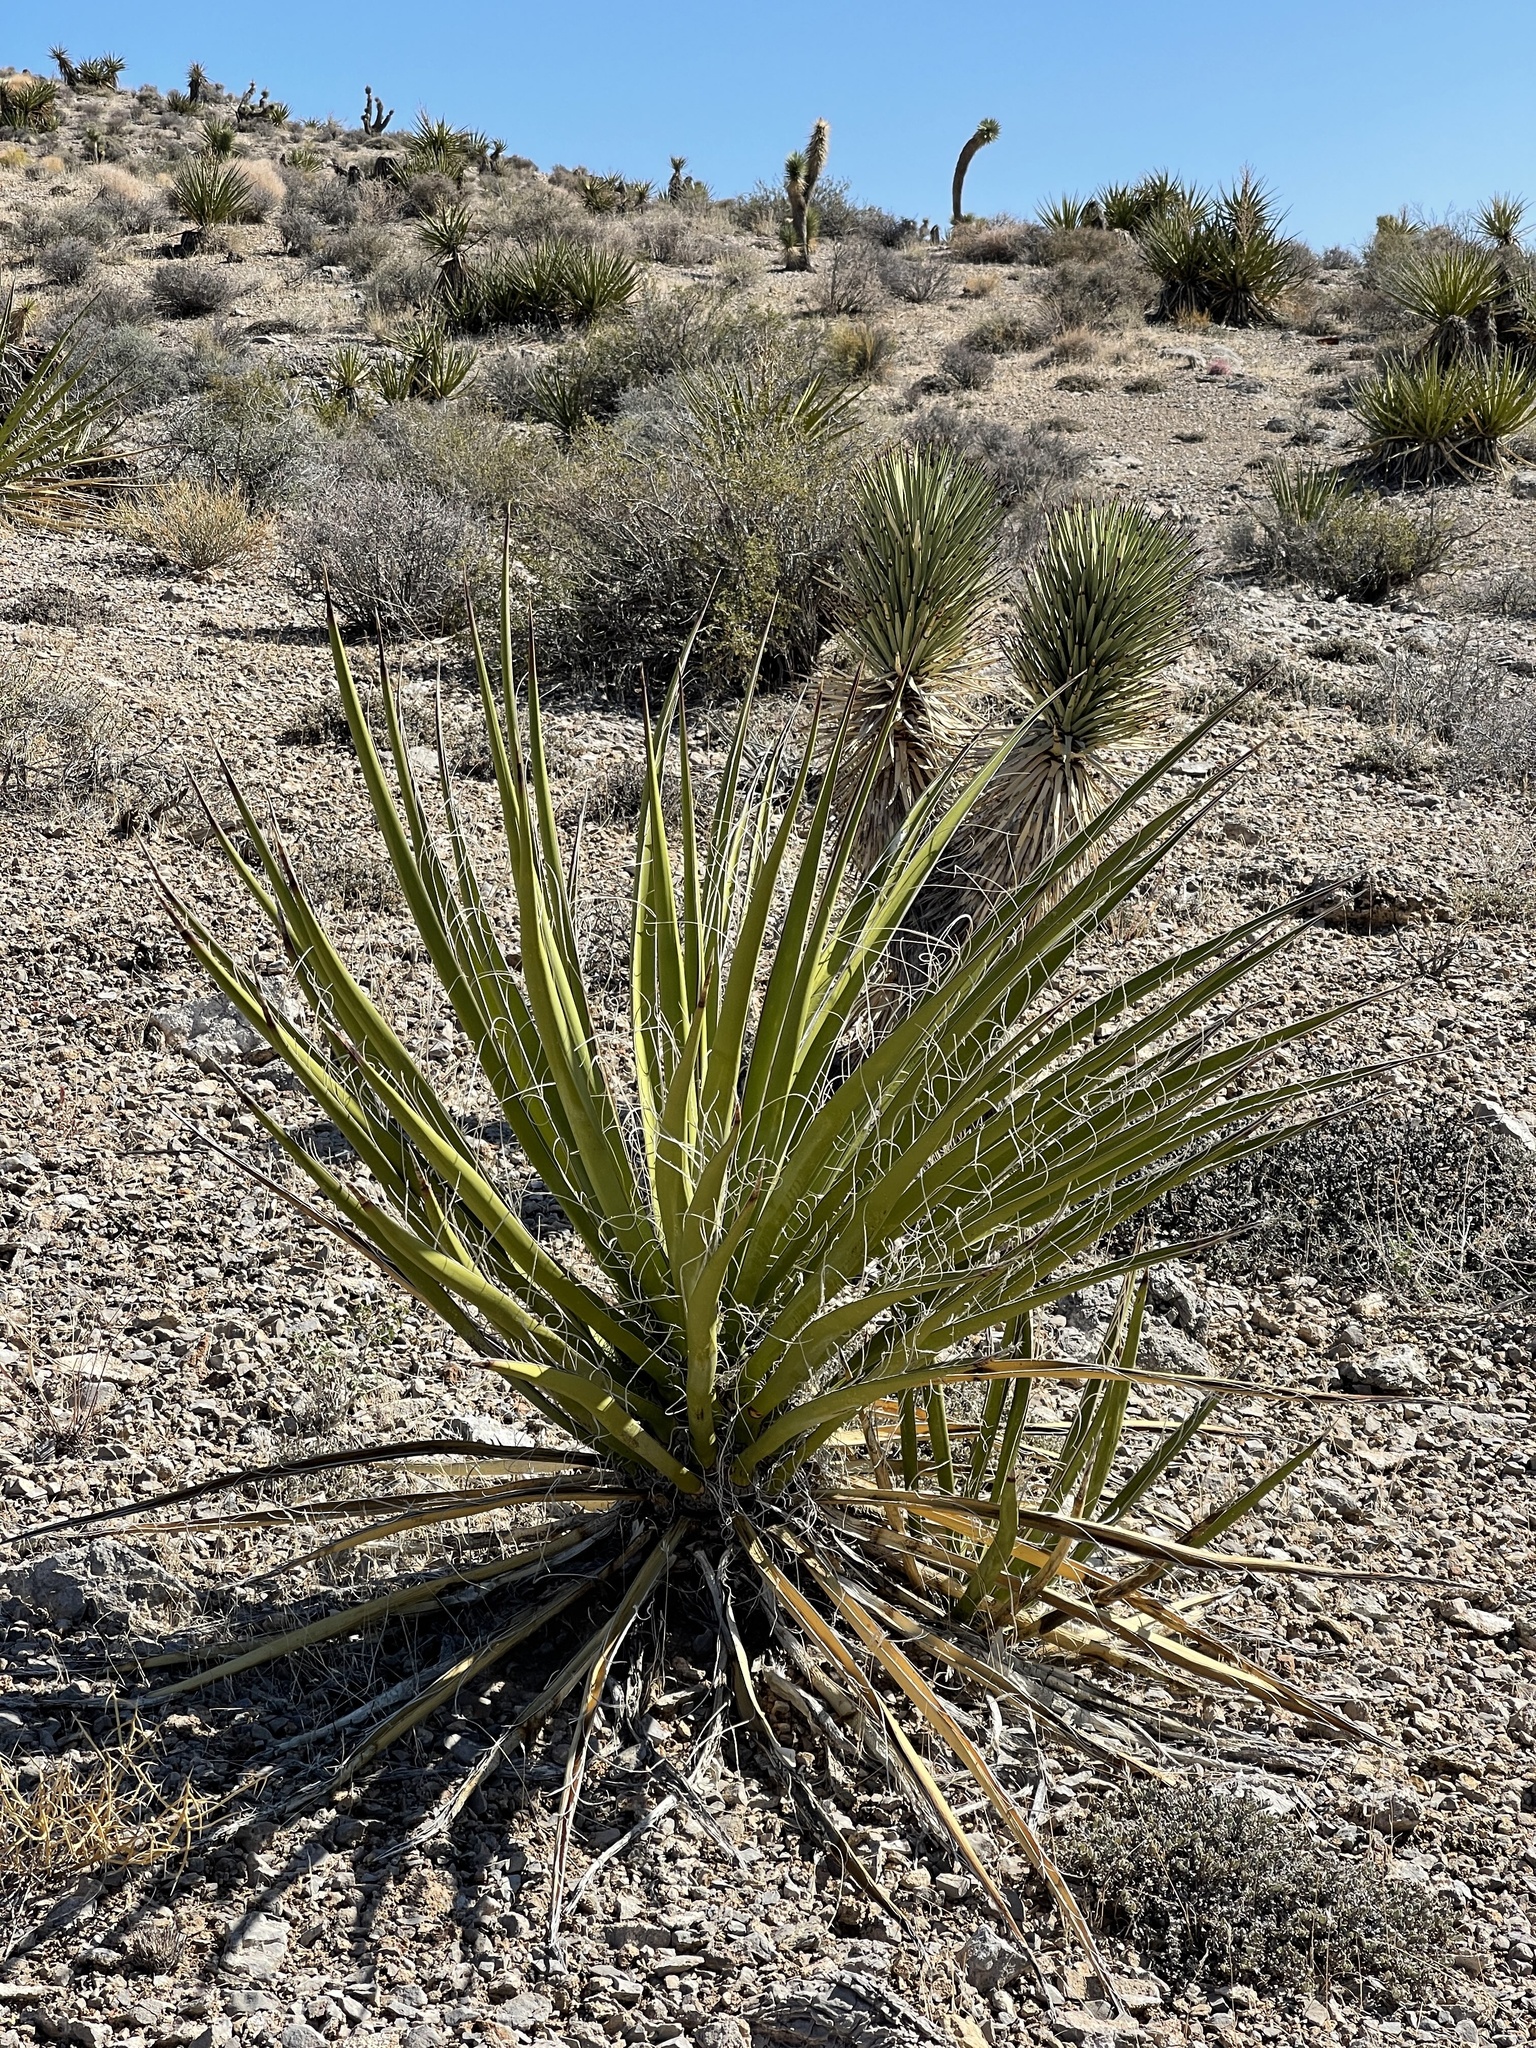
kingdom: Plantae
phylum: Tracheophyta
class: Liliopsida
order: Asparagales
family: Asparagaceae
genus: Yucca
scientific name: Yucca schidigera
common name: Mojave yucca
